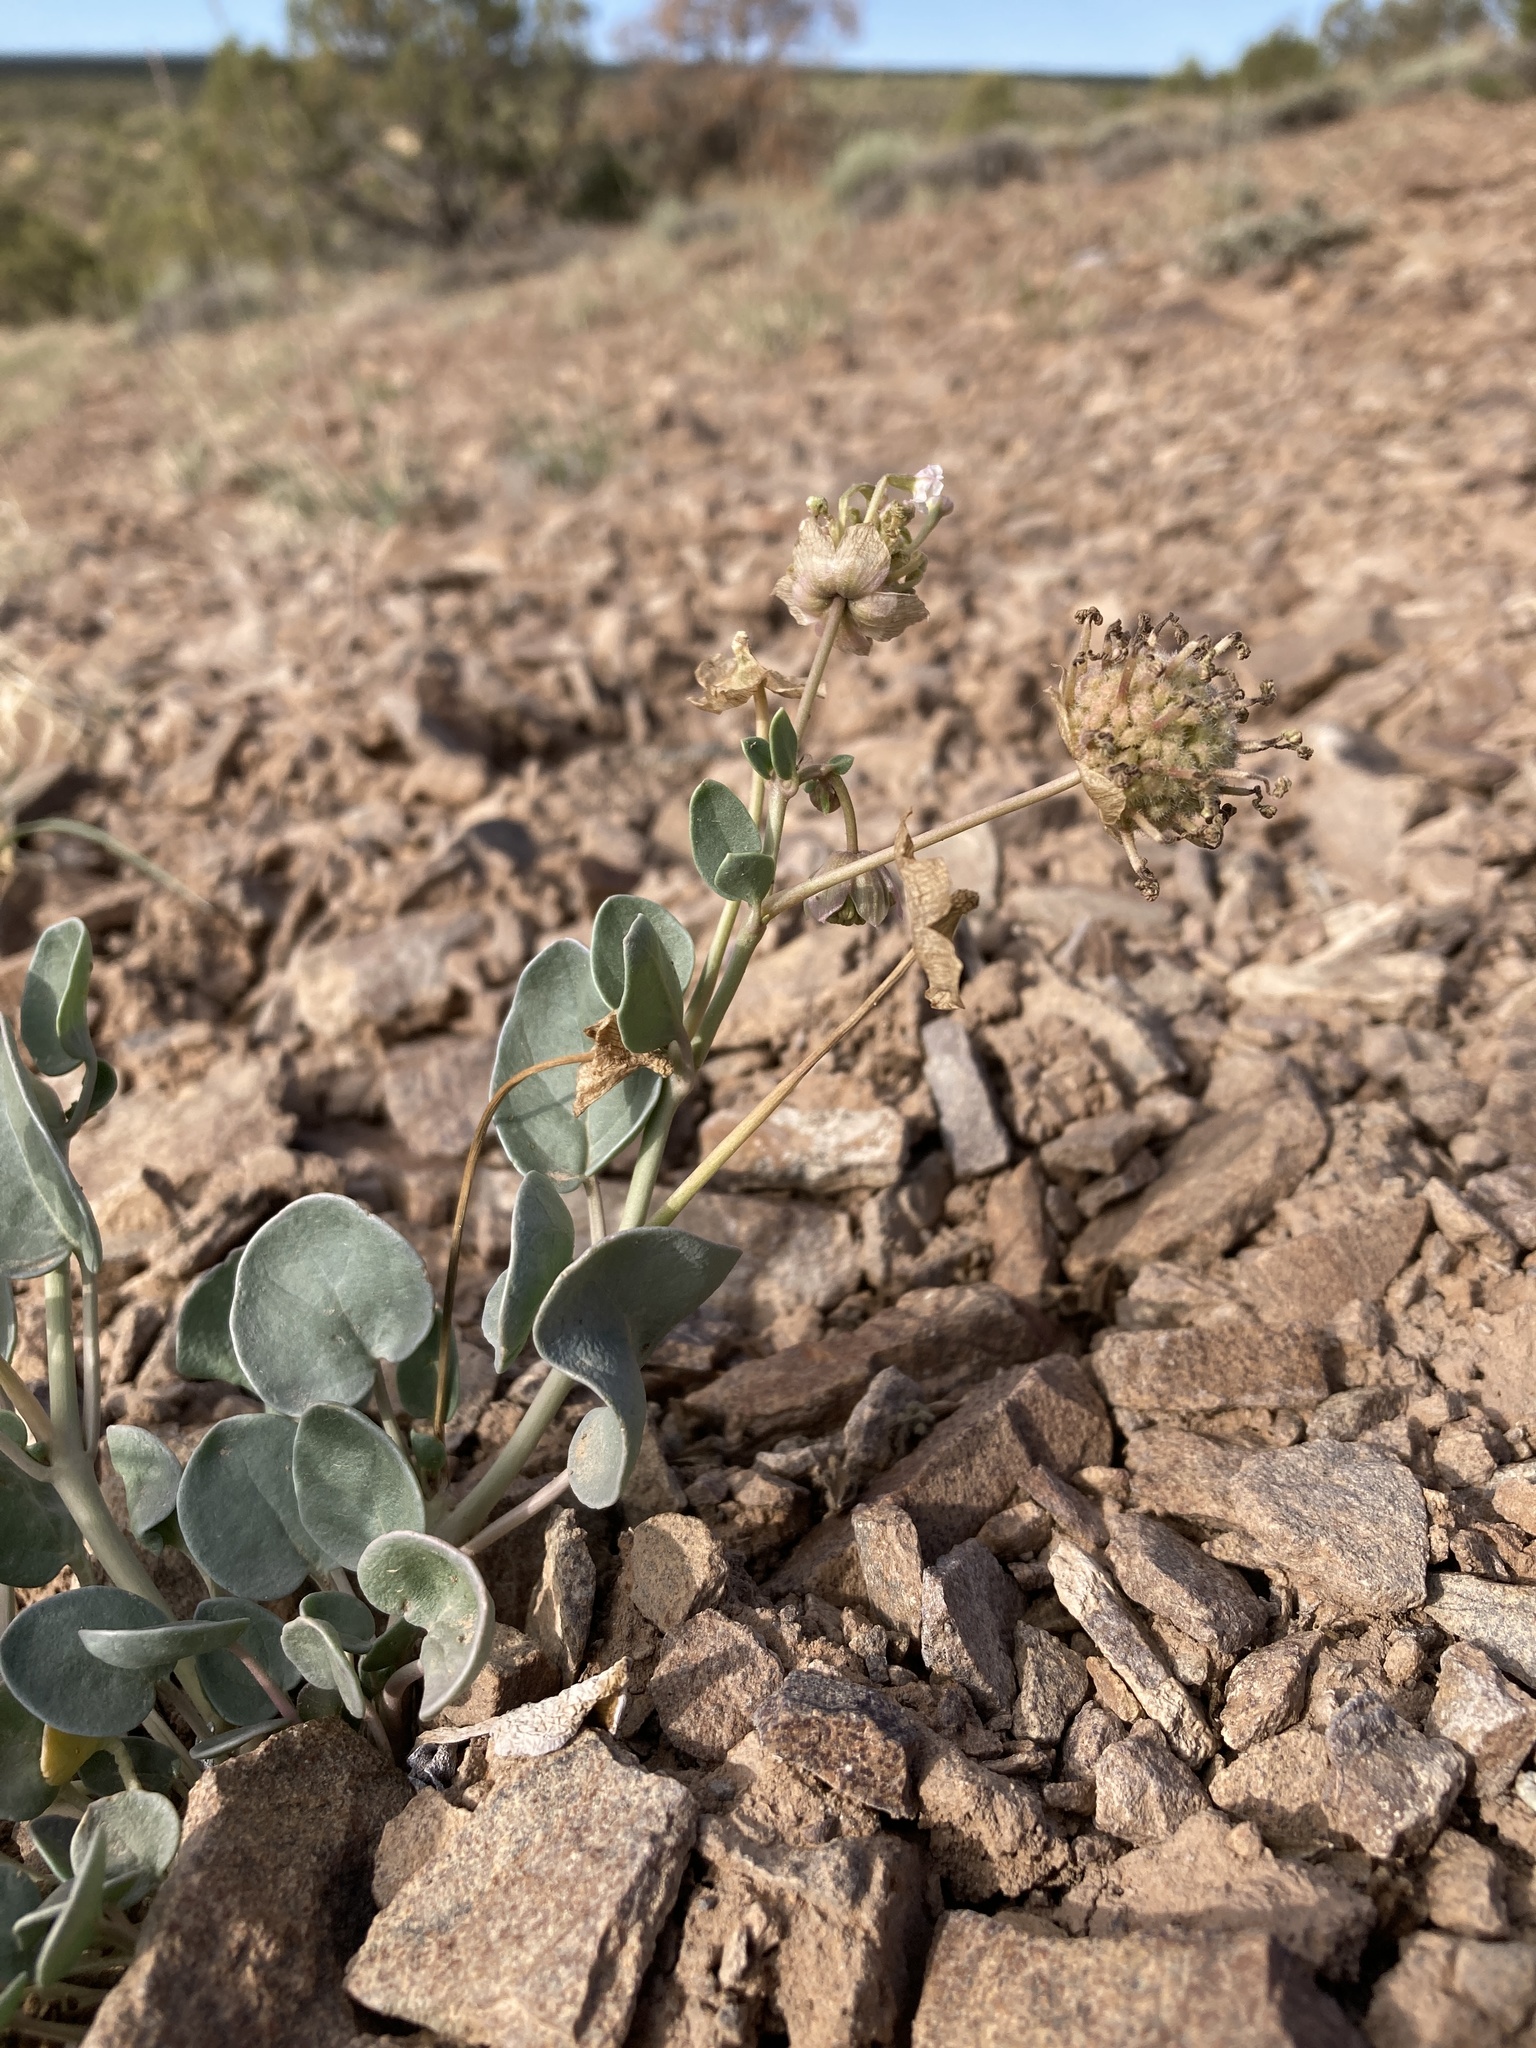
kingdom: Plantae
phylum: Tracheophyta
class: Magnoliopsida
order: Caryophyllales
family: Nyctaginaceae
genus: Abronia
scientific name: Abronia elliptica
